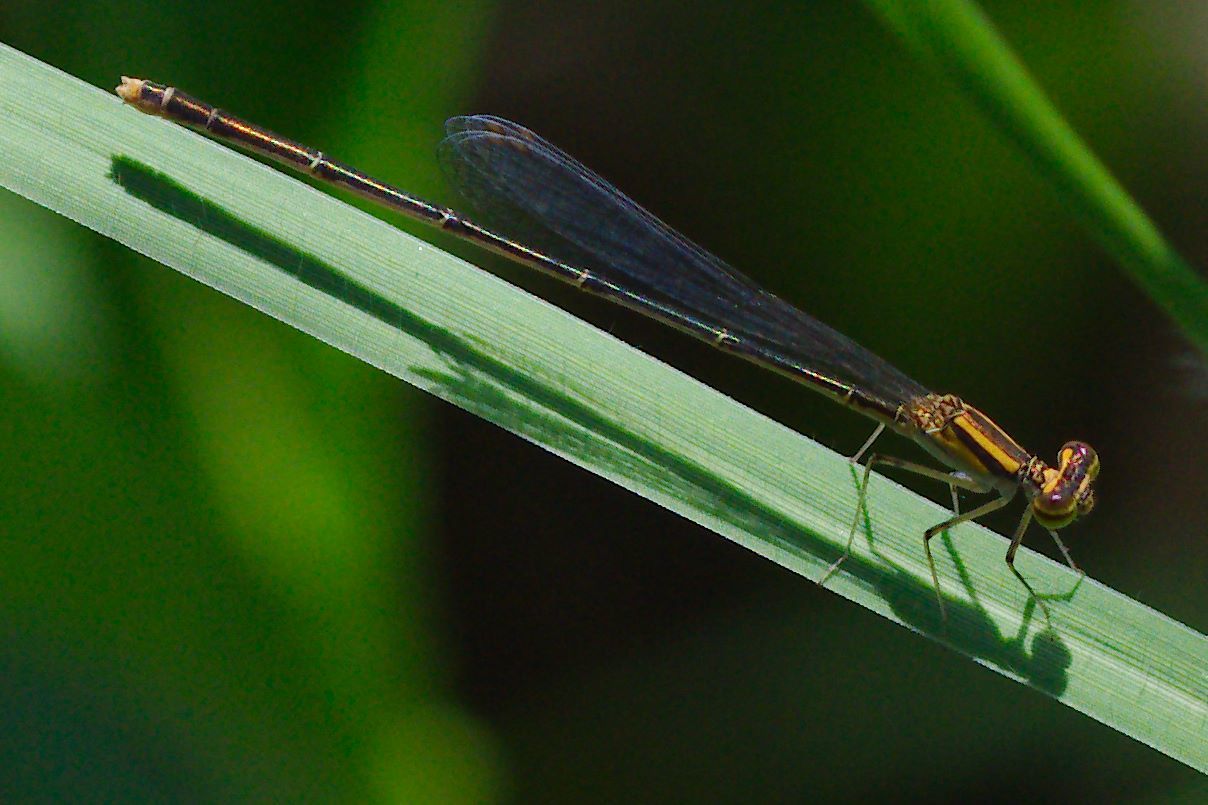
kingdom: Animalia
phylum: Arthropoda
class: Insecta
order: Odonata
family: Coenagrionidae
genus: Enallagma
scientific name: Enallagma pollutum
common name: Florida bluet
